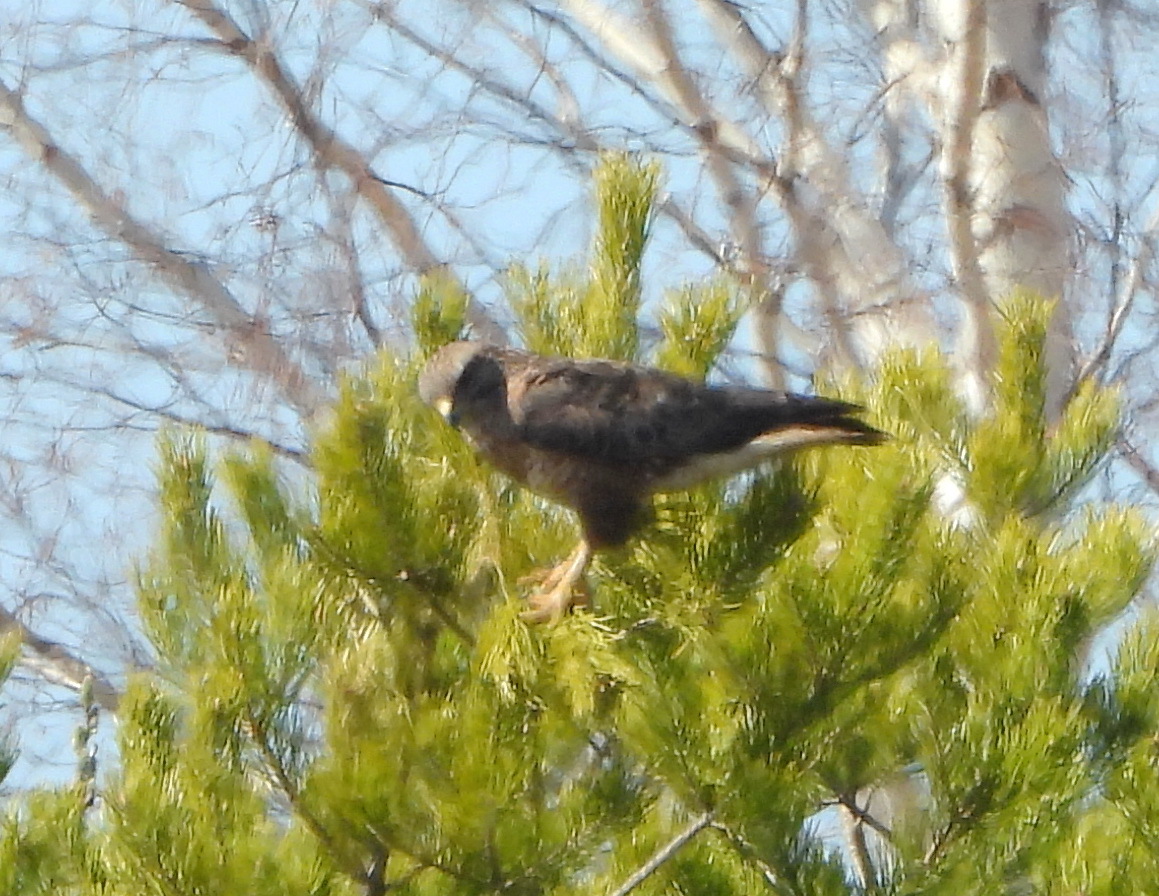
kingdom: Animalia
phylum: Chordata
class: Aves
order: Accipitriformes
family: Accipitridae
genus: Buteo
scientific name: Buteo buteo
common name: Common buzzard
